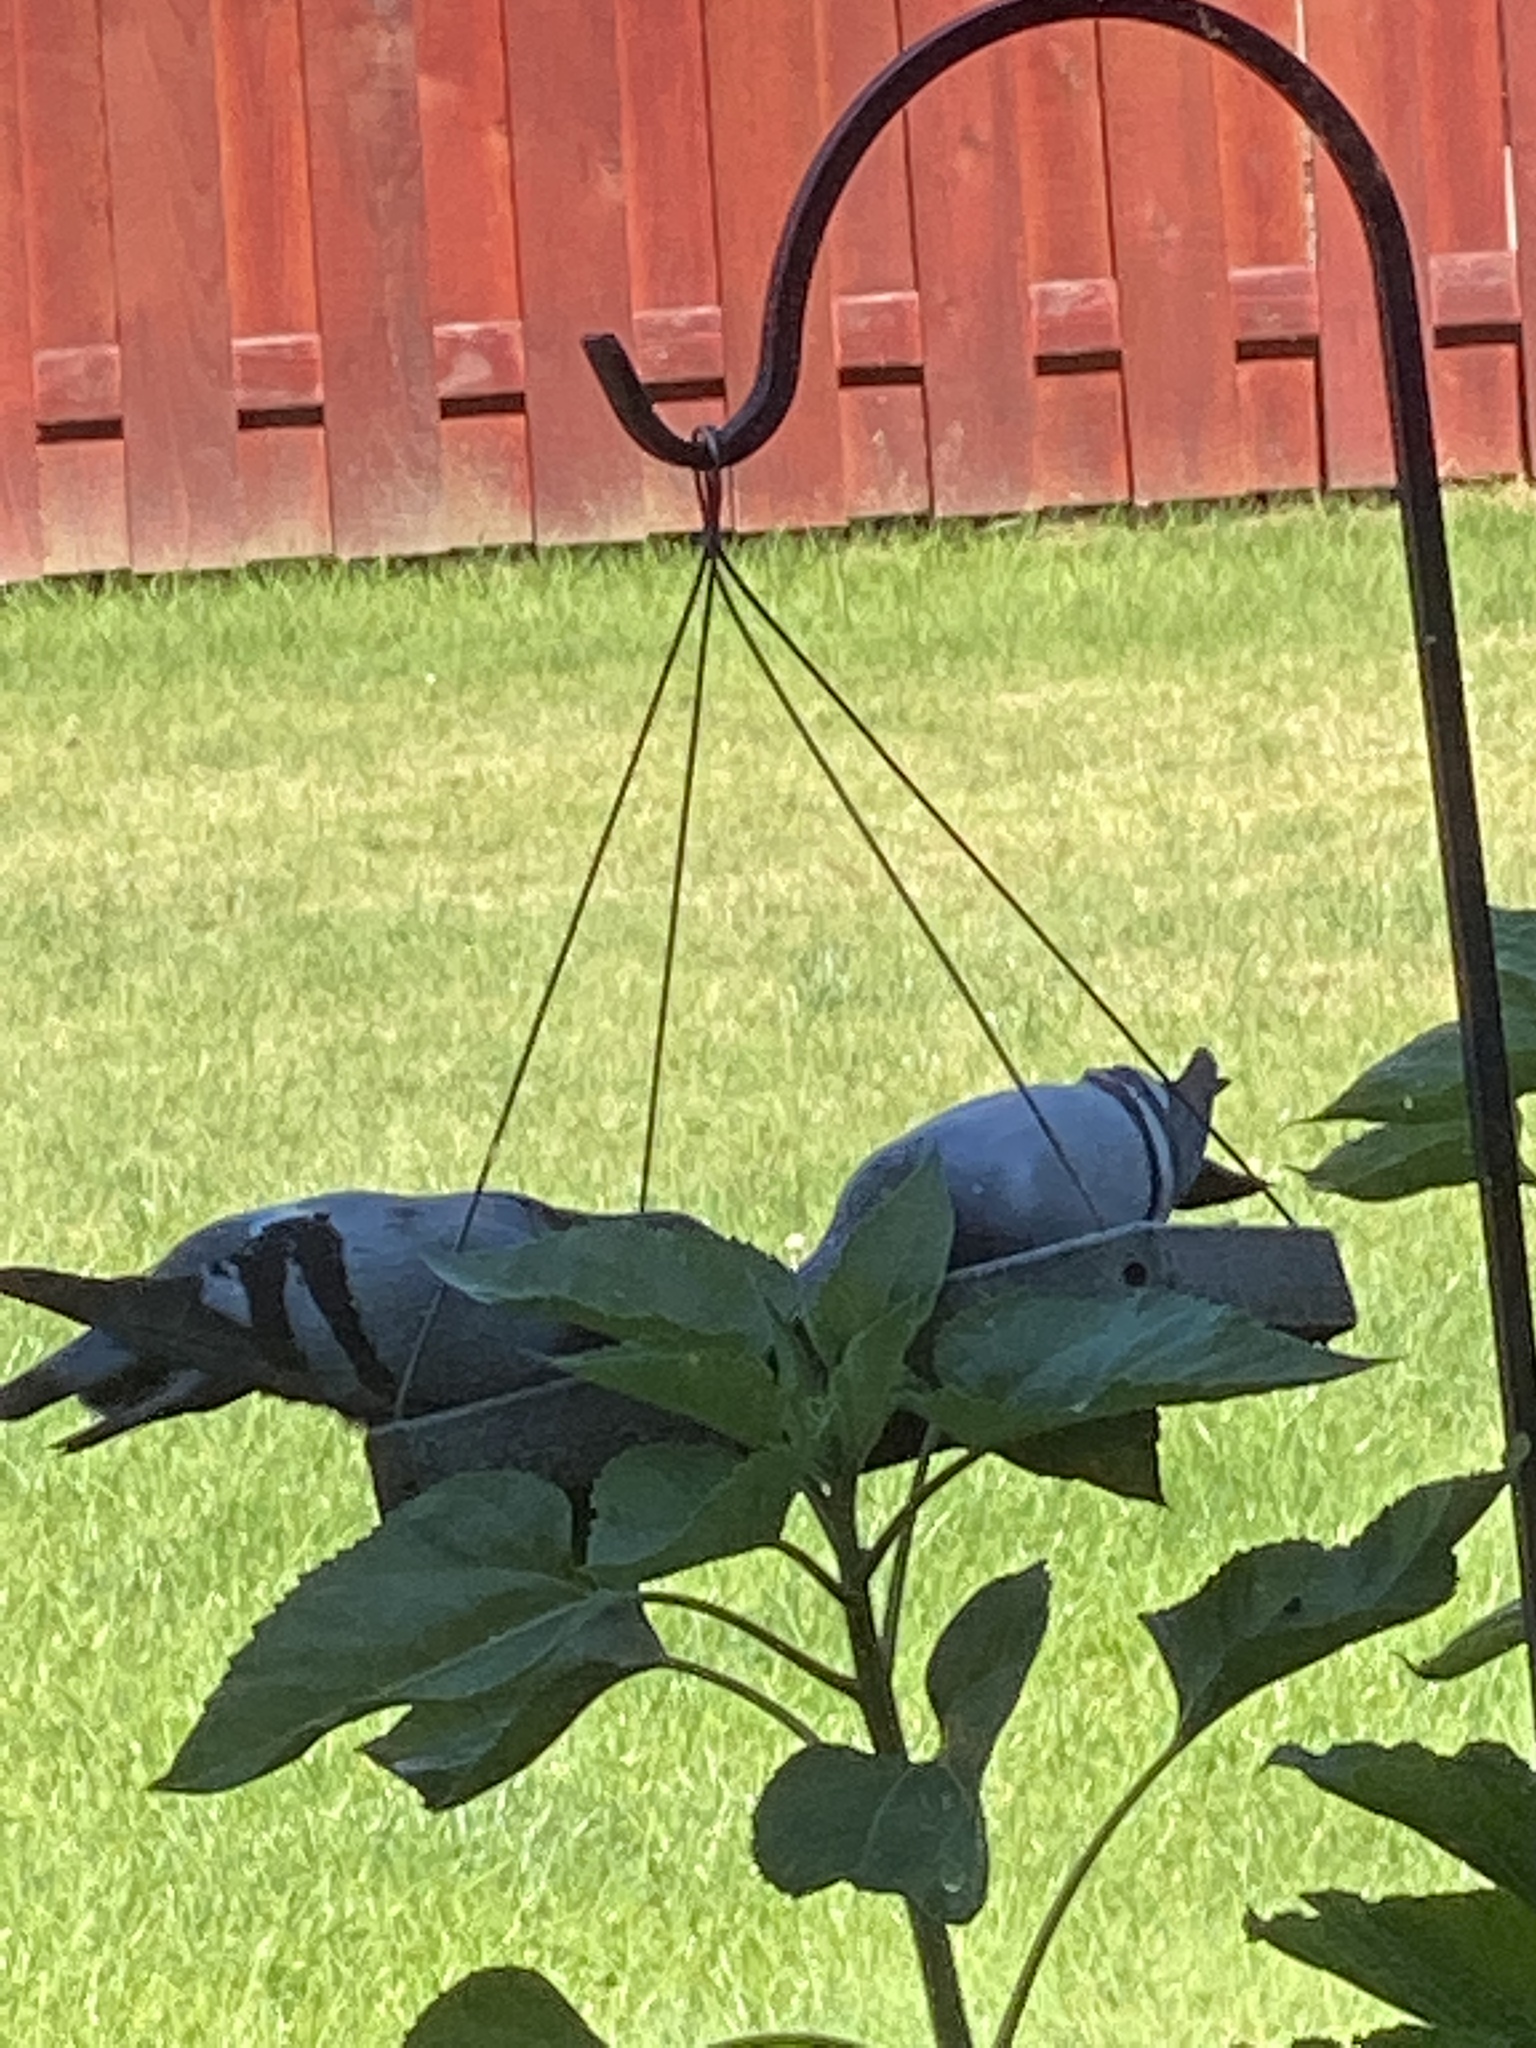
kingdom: Animalia
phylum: Chordata
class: Aves
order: Columbiformes
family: Columbidae
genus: Columba
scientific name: Columba livia
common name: Rock pigeon
